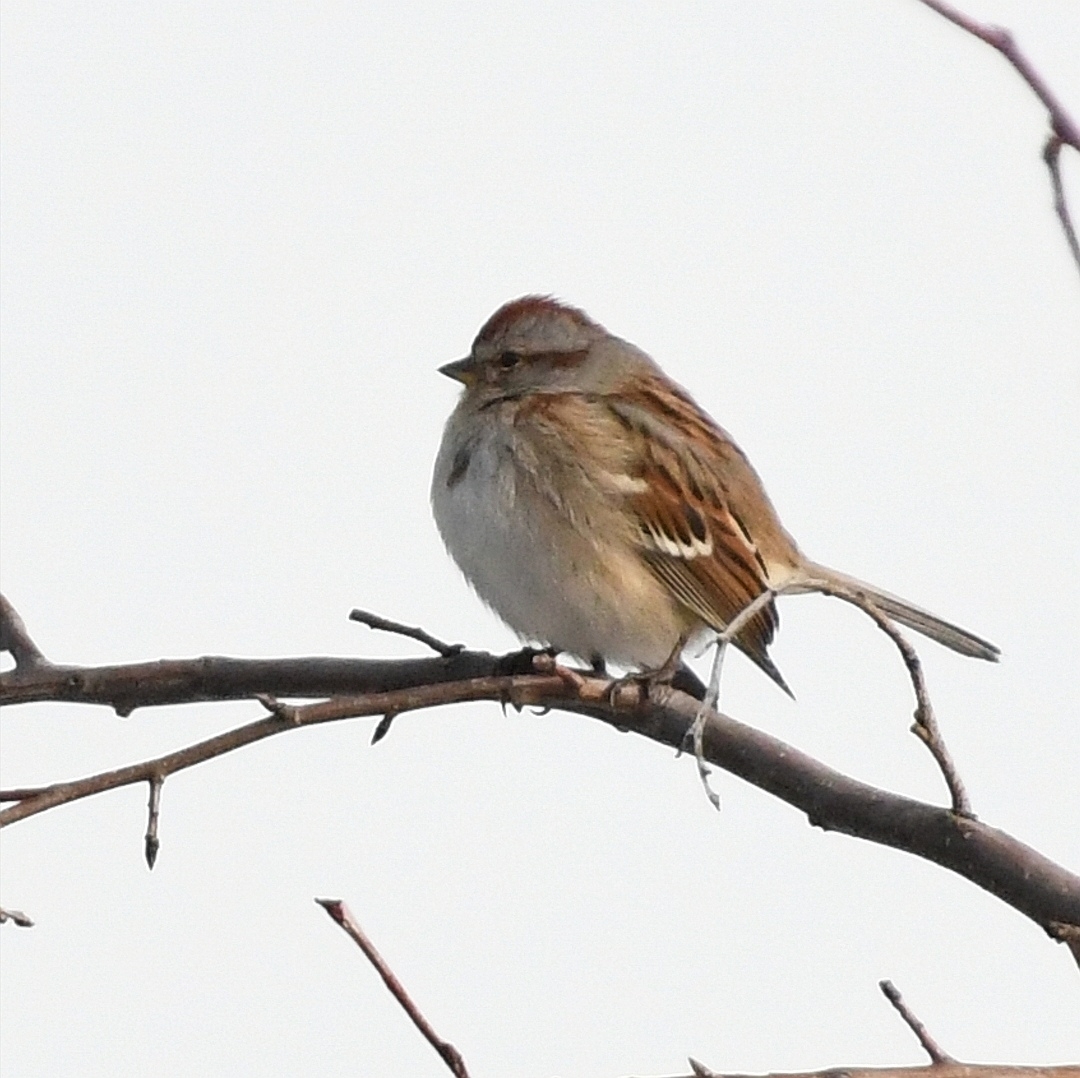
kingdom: Animalia
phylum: Chordata
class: Aves
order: Passeriformes
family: Passerellidae
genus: Spizelloides
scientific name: Spizelloides arborea
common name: American tree sparrow
